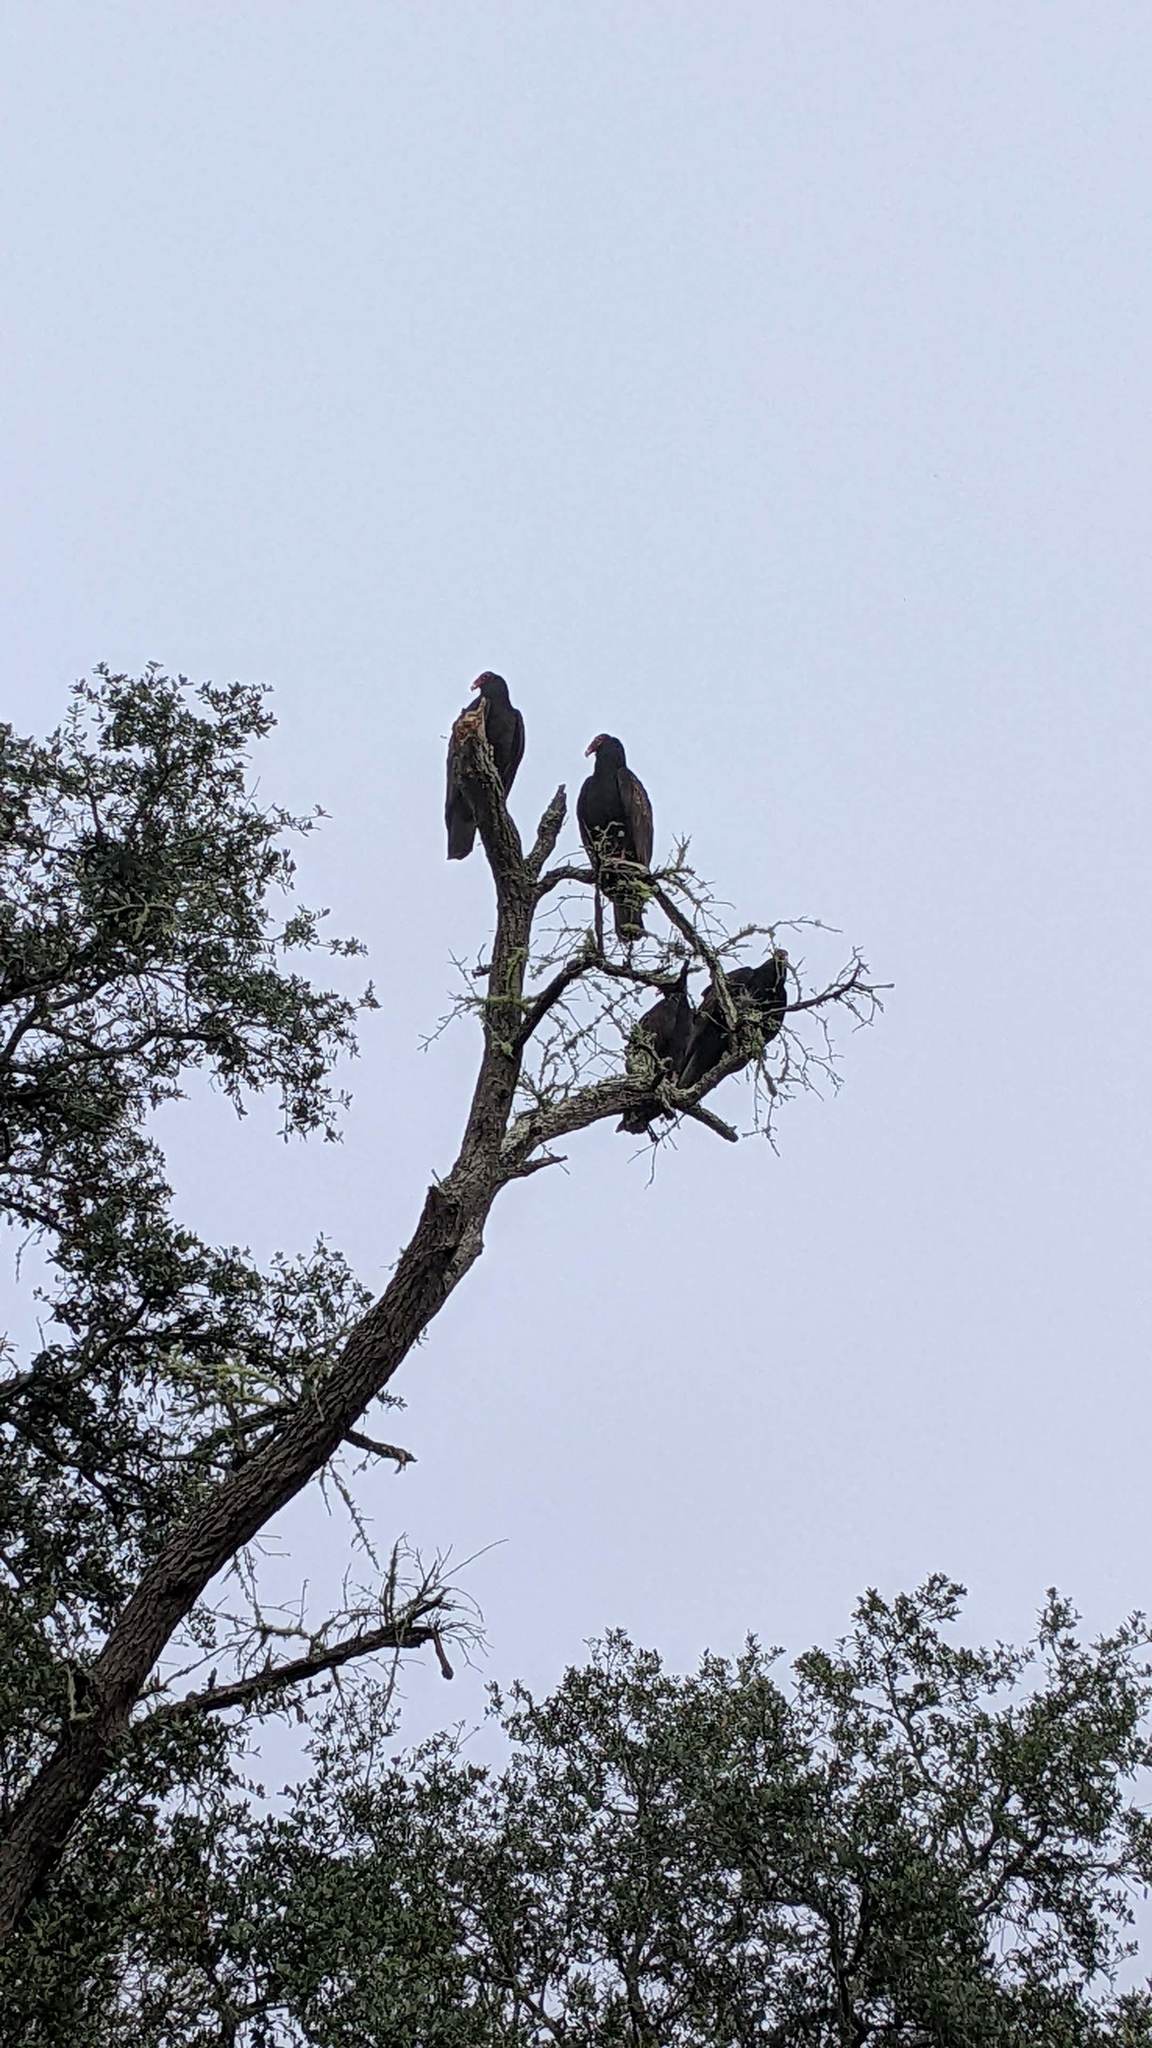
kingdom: Animalia
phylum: Chordata
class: Aves
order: Accipitriformes
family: Cathartidae
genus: Cathartes
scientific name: Cathartes aura
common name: Turkey vulture
